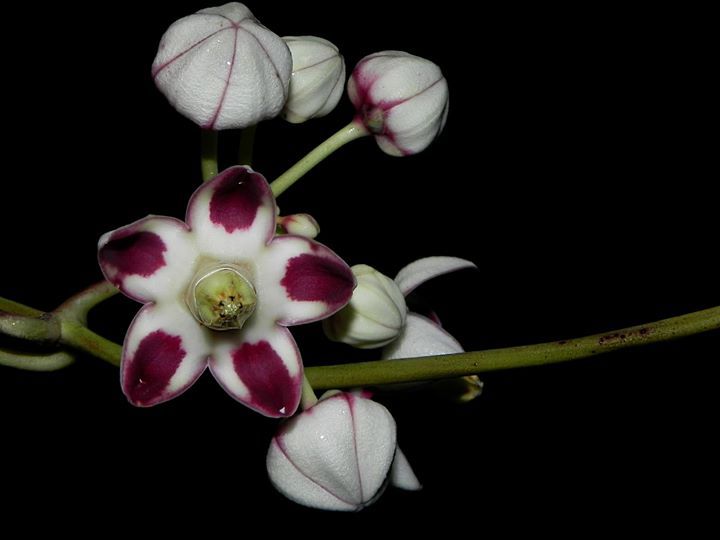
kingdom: Plantae
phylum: Tracheophyta
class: Magnoliopsida
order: Gentianales
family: Apocynaceae
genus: Cynanchum
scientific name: Cynanchum annularium
